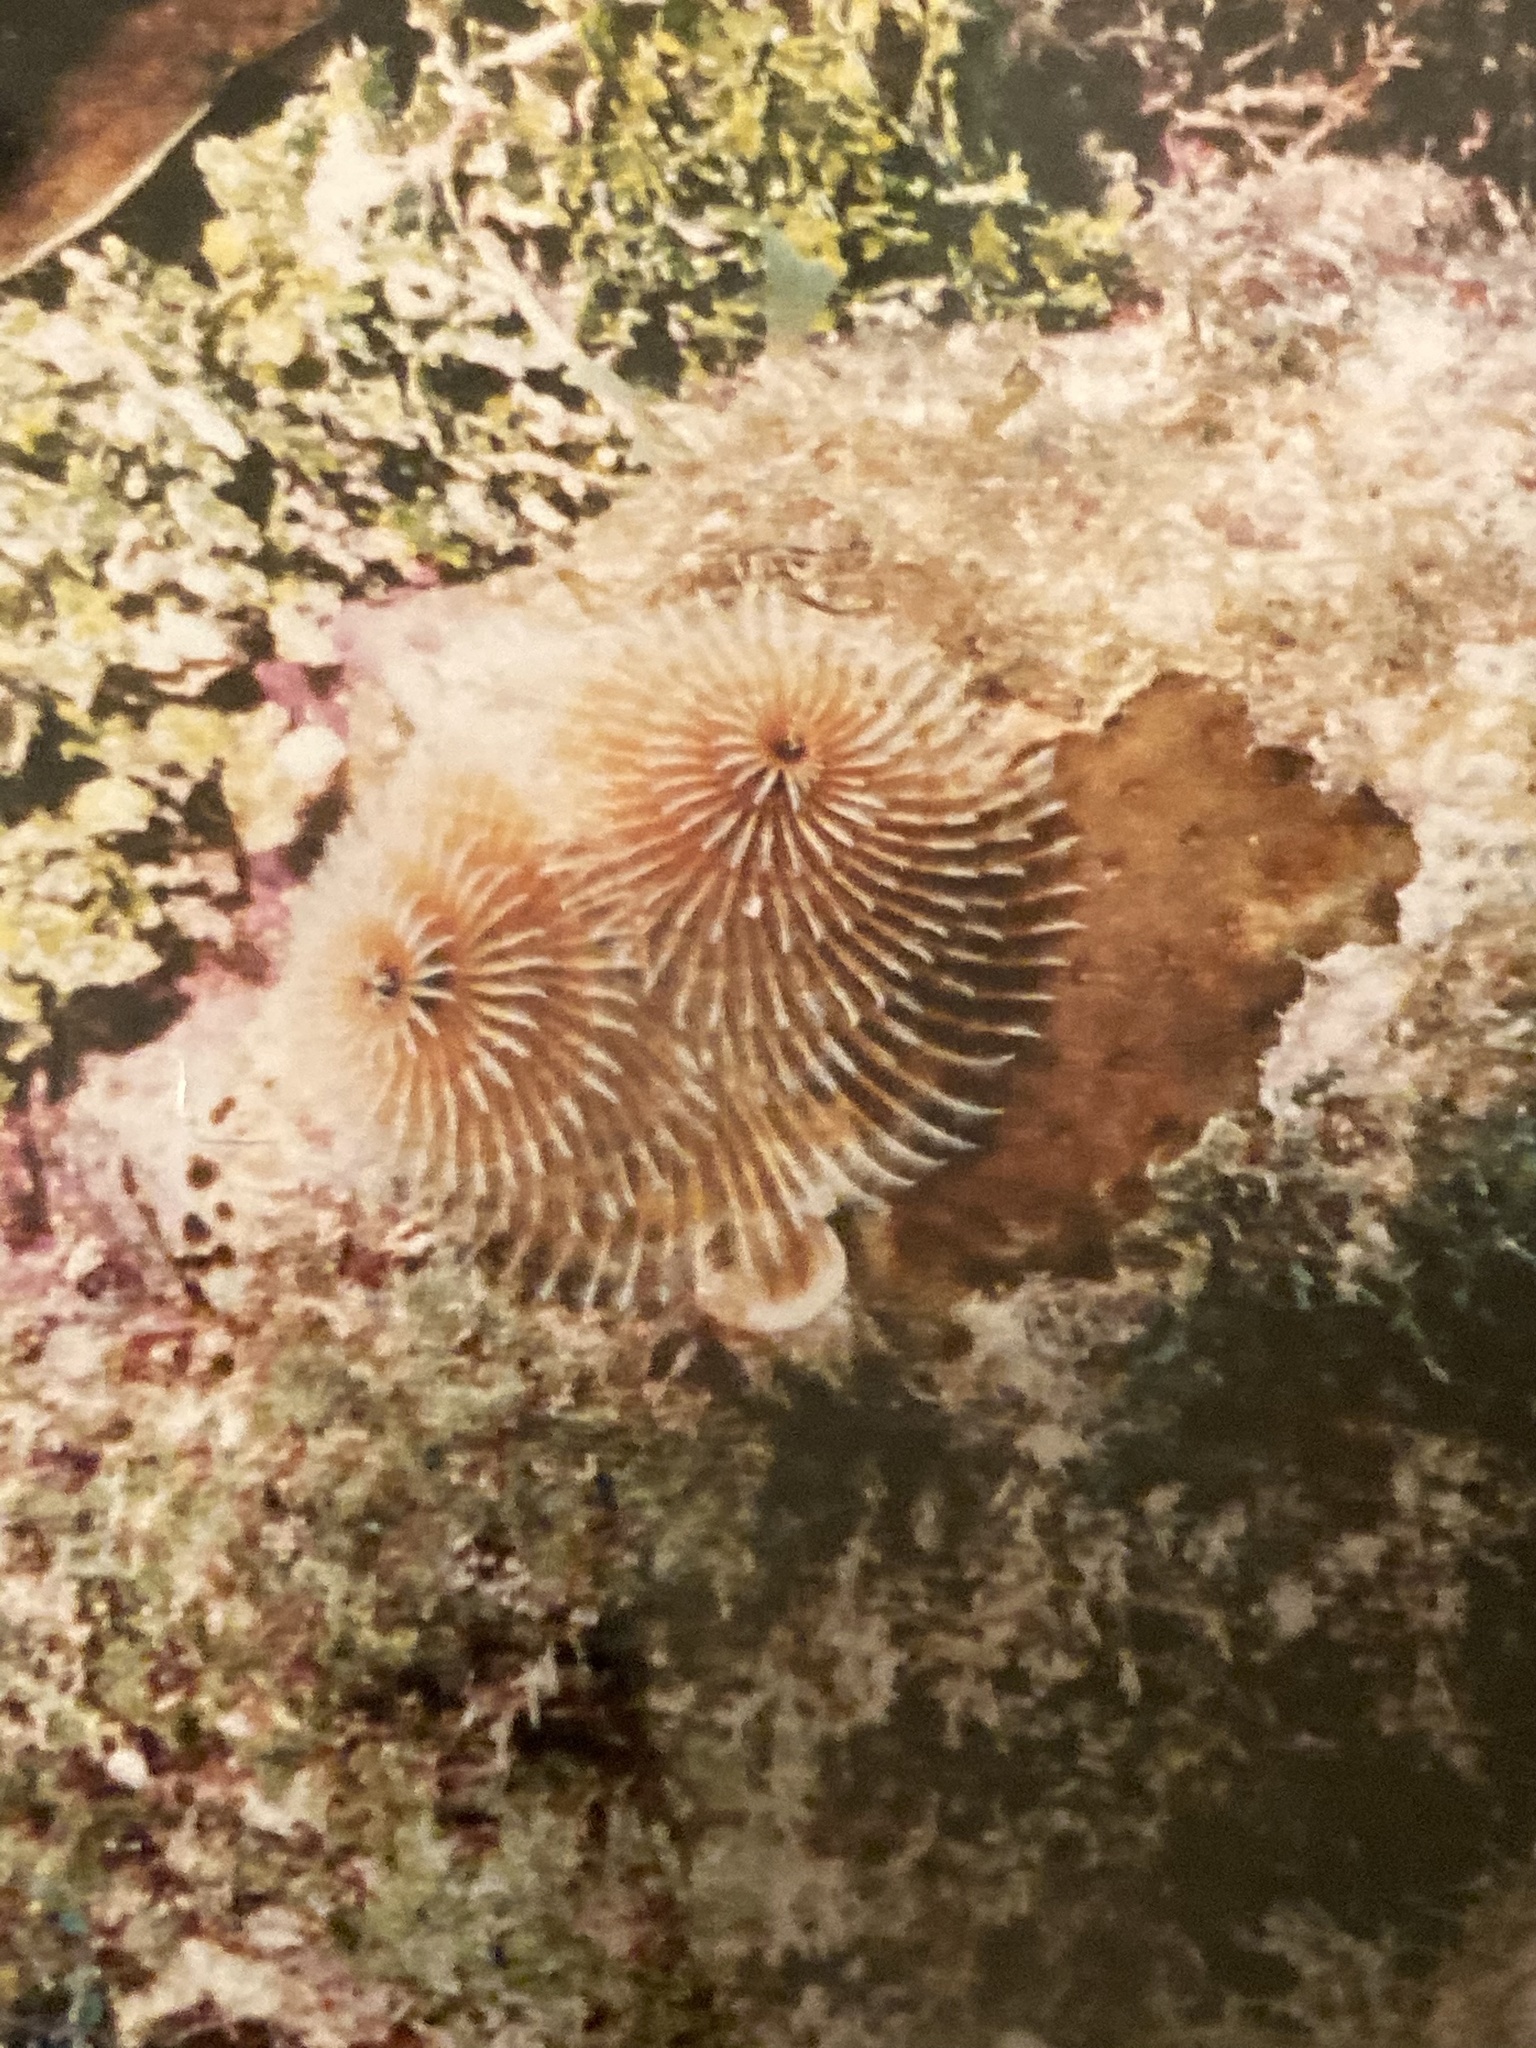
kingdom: Animalia
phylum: Annelida
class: Polychaeta
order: Sabellida
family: Serpulidae
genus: Spirobranchus
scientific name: Spirobranchus giganteus
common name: Christmas tree worm
